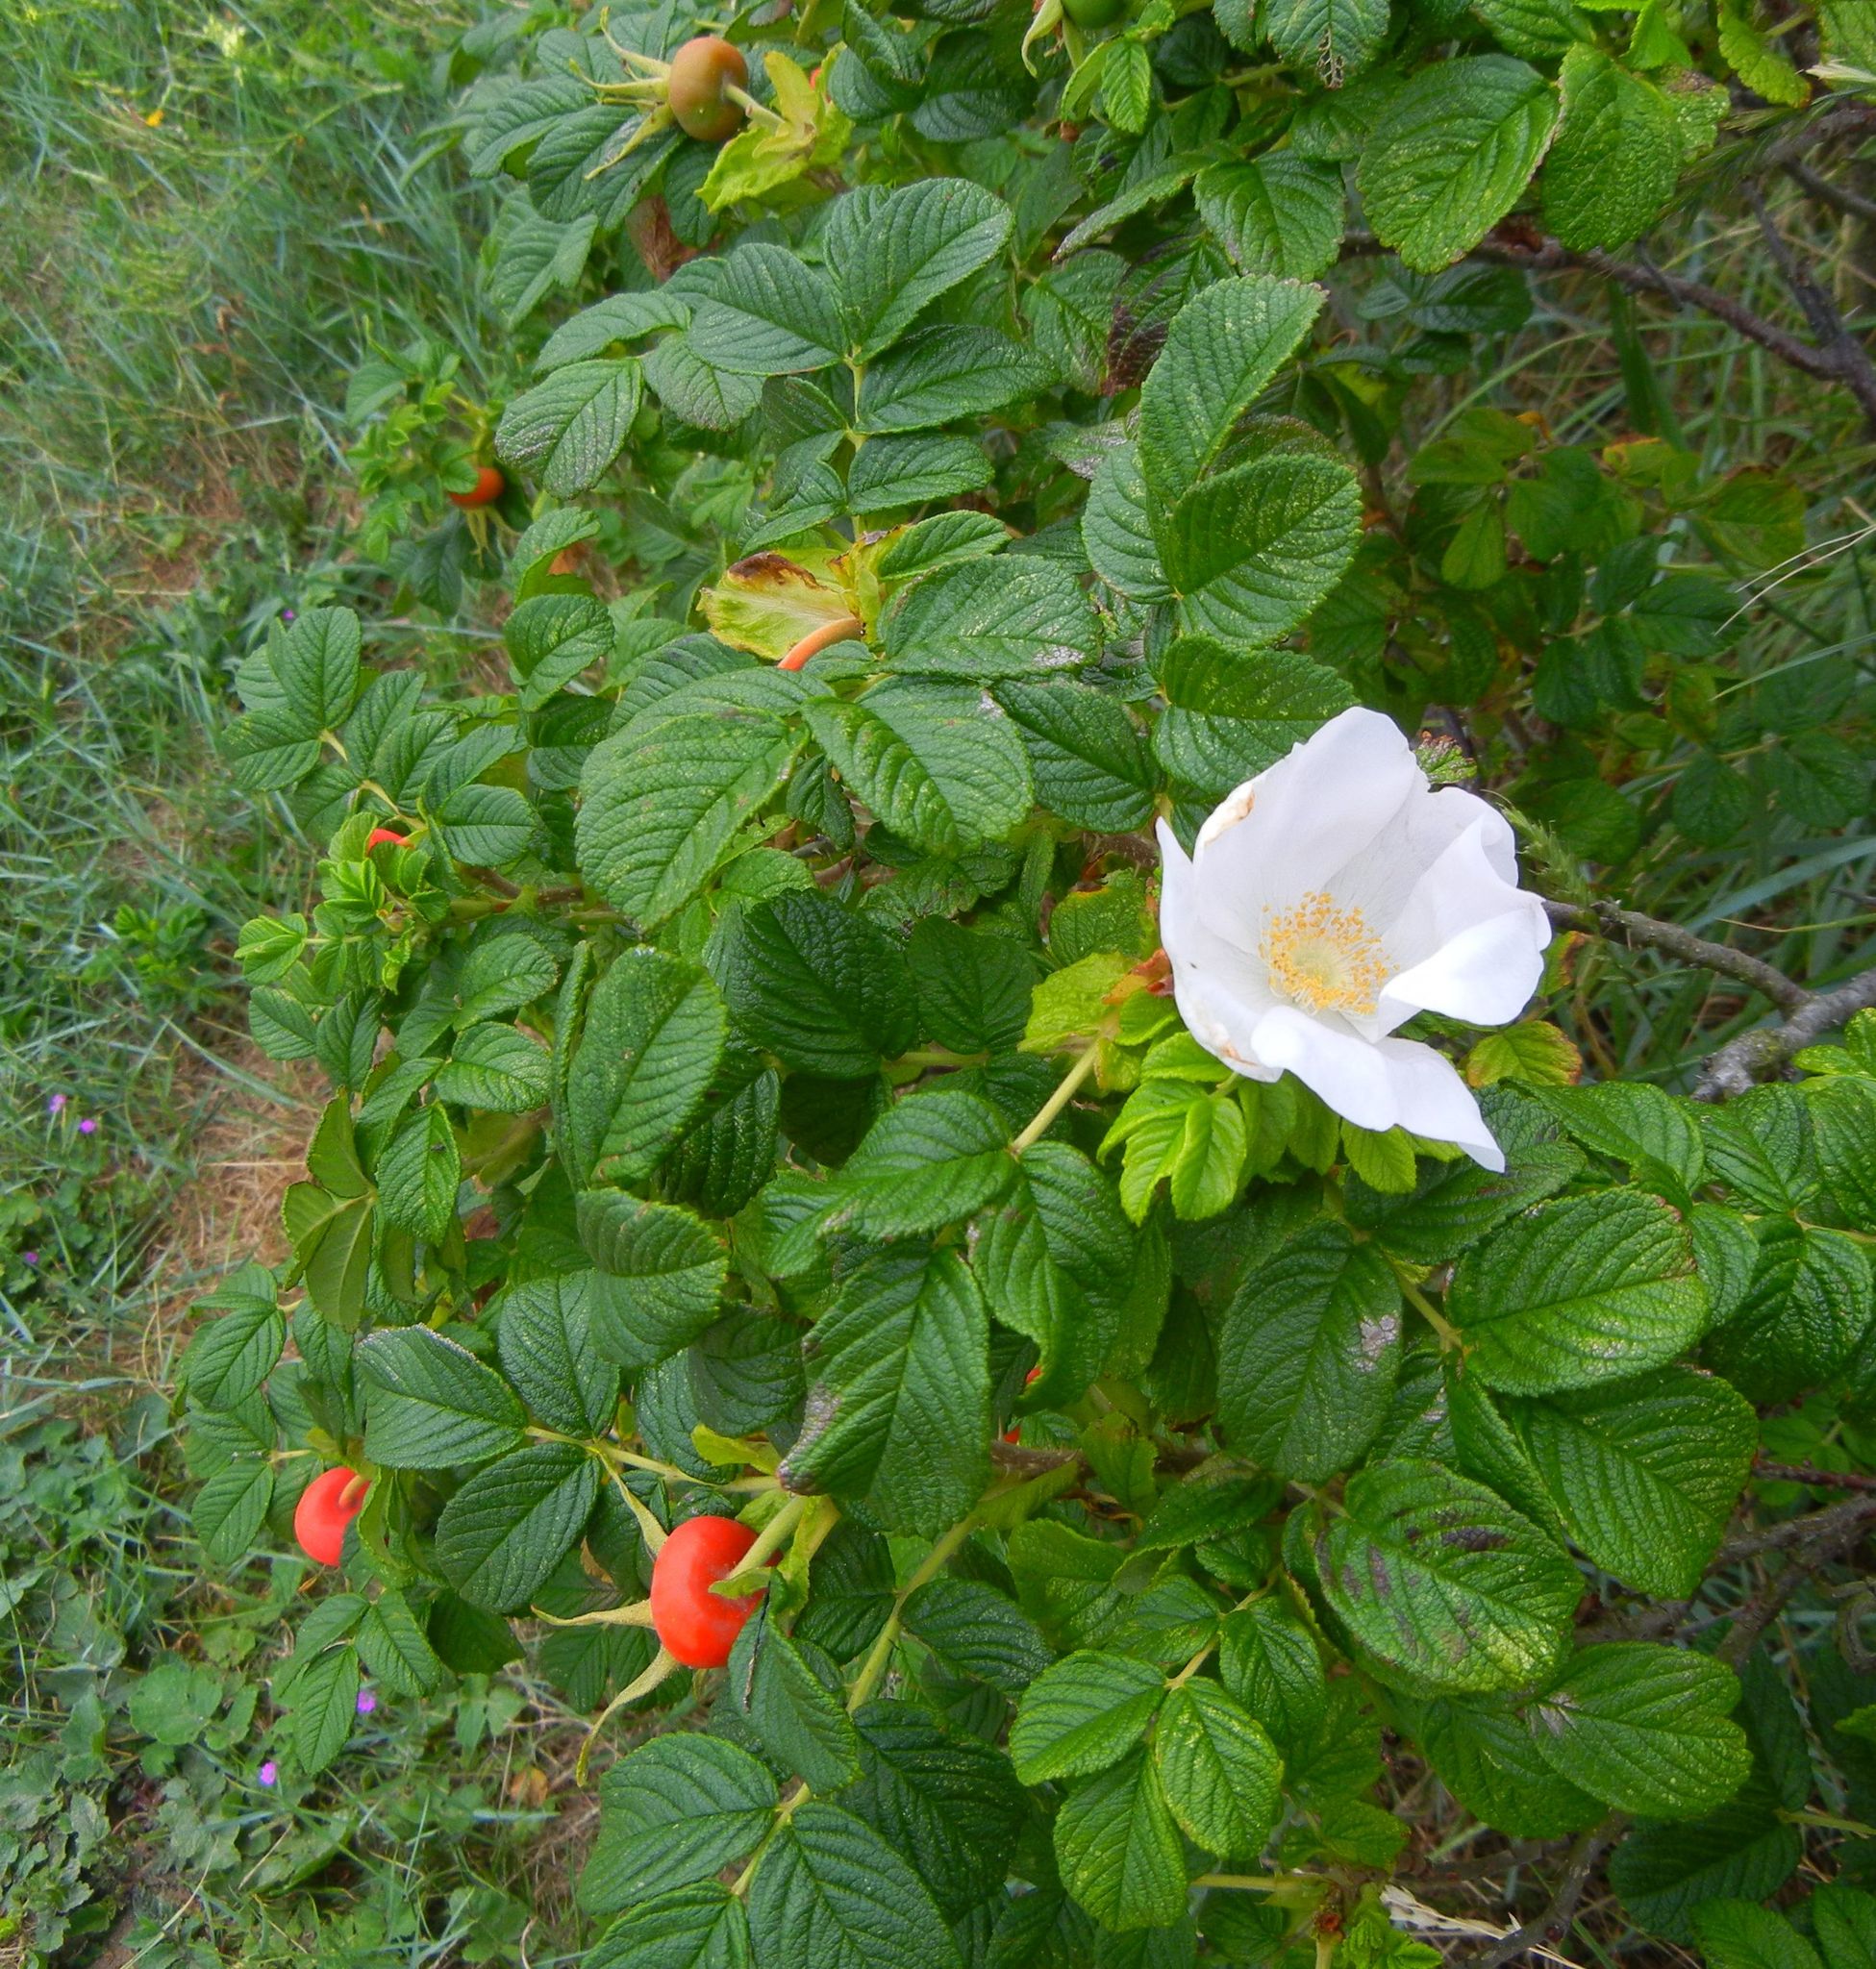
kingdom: Plantae
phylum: Tracheophyta
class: Magnoliopsida
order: Rosales
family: Rosaceae
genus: Rosa
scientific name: Rosa rugosa
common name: Japanese rose
